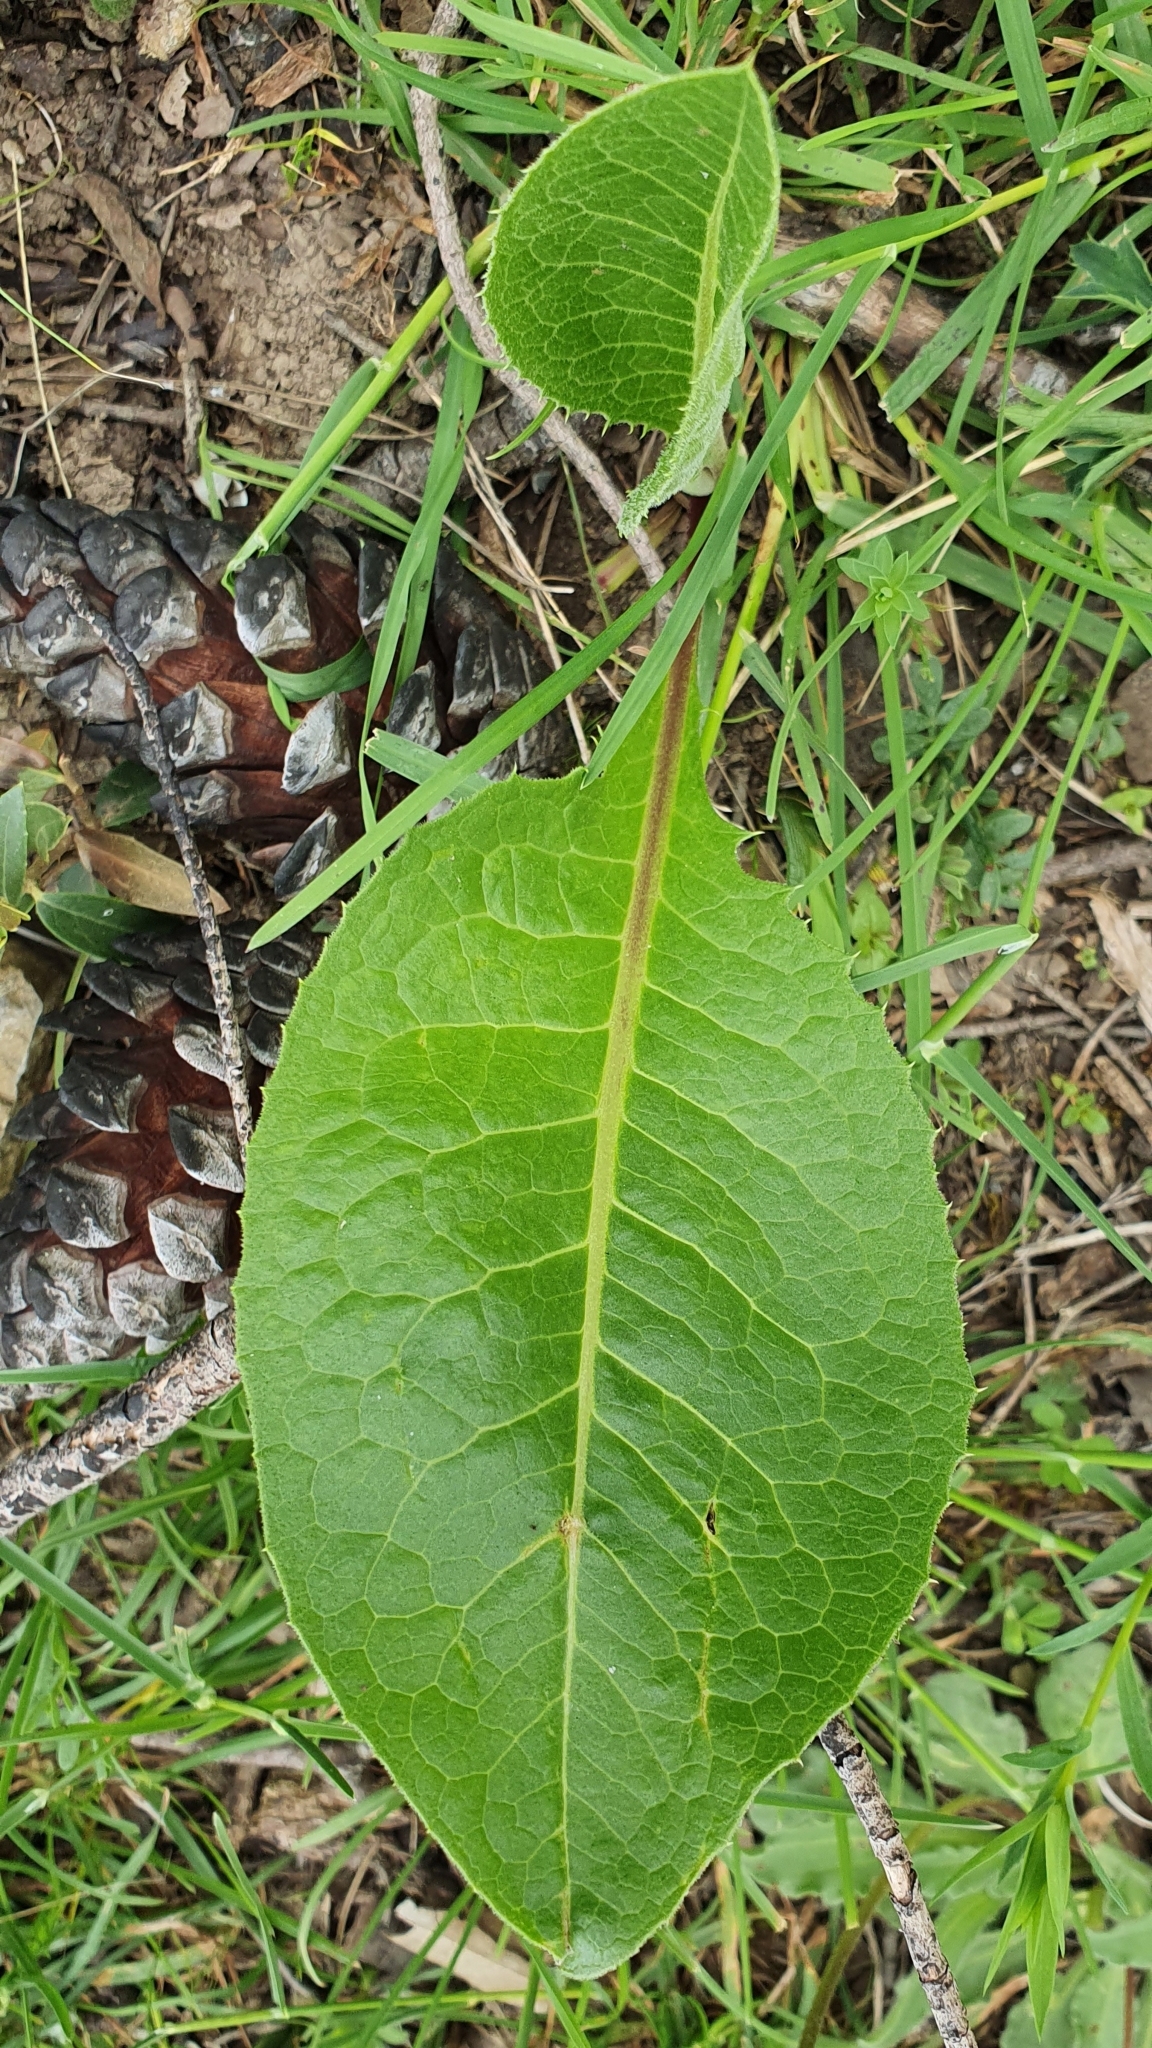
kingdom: Plantae
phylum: Tracheophyta
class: Magnoliopsida
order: Asterales
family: Asteraceae
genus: Klasea
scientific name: Klasea flavescens
